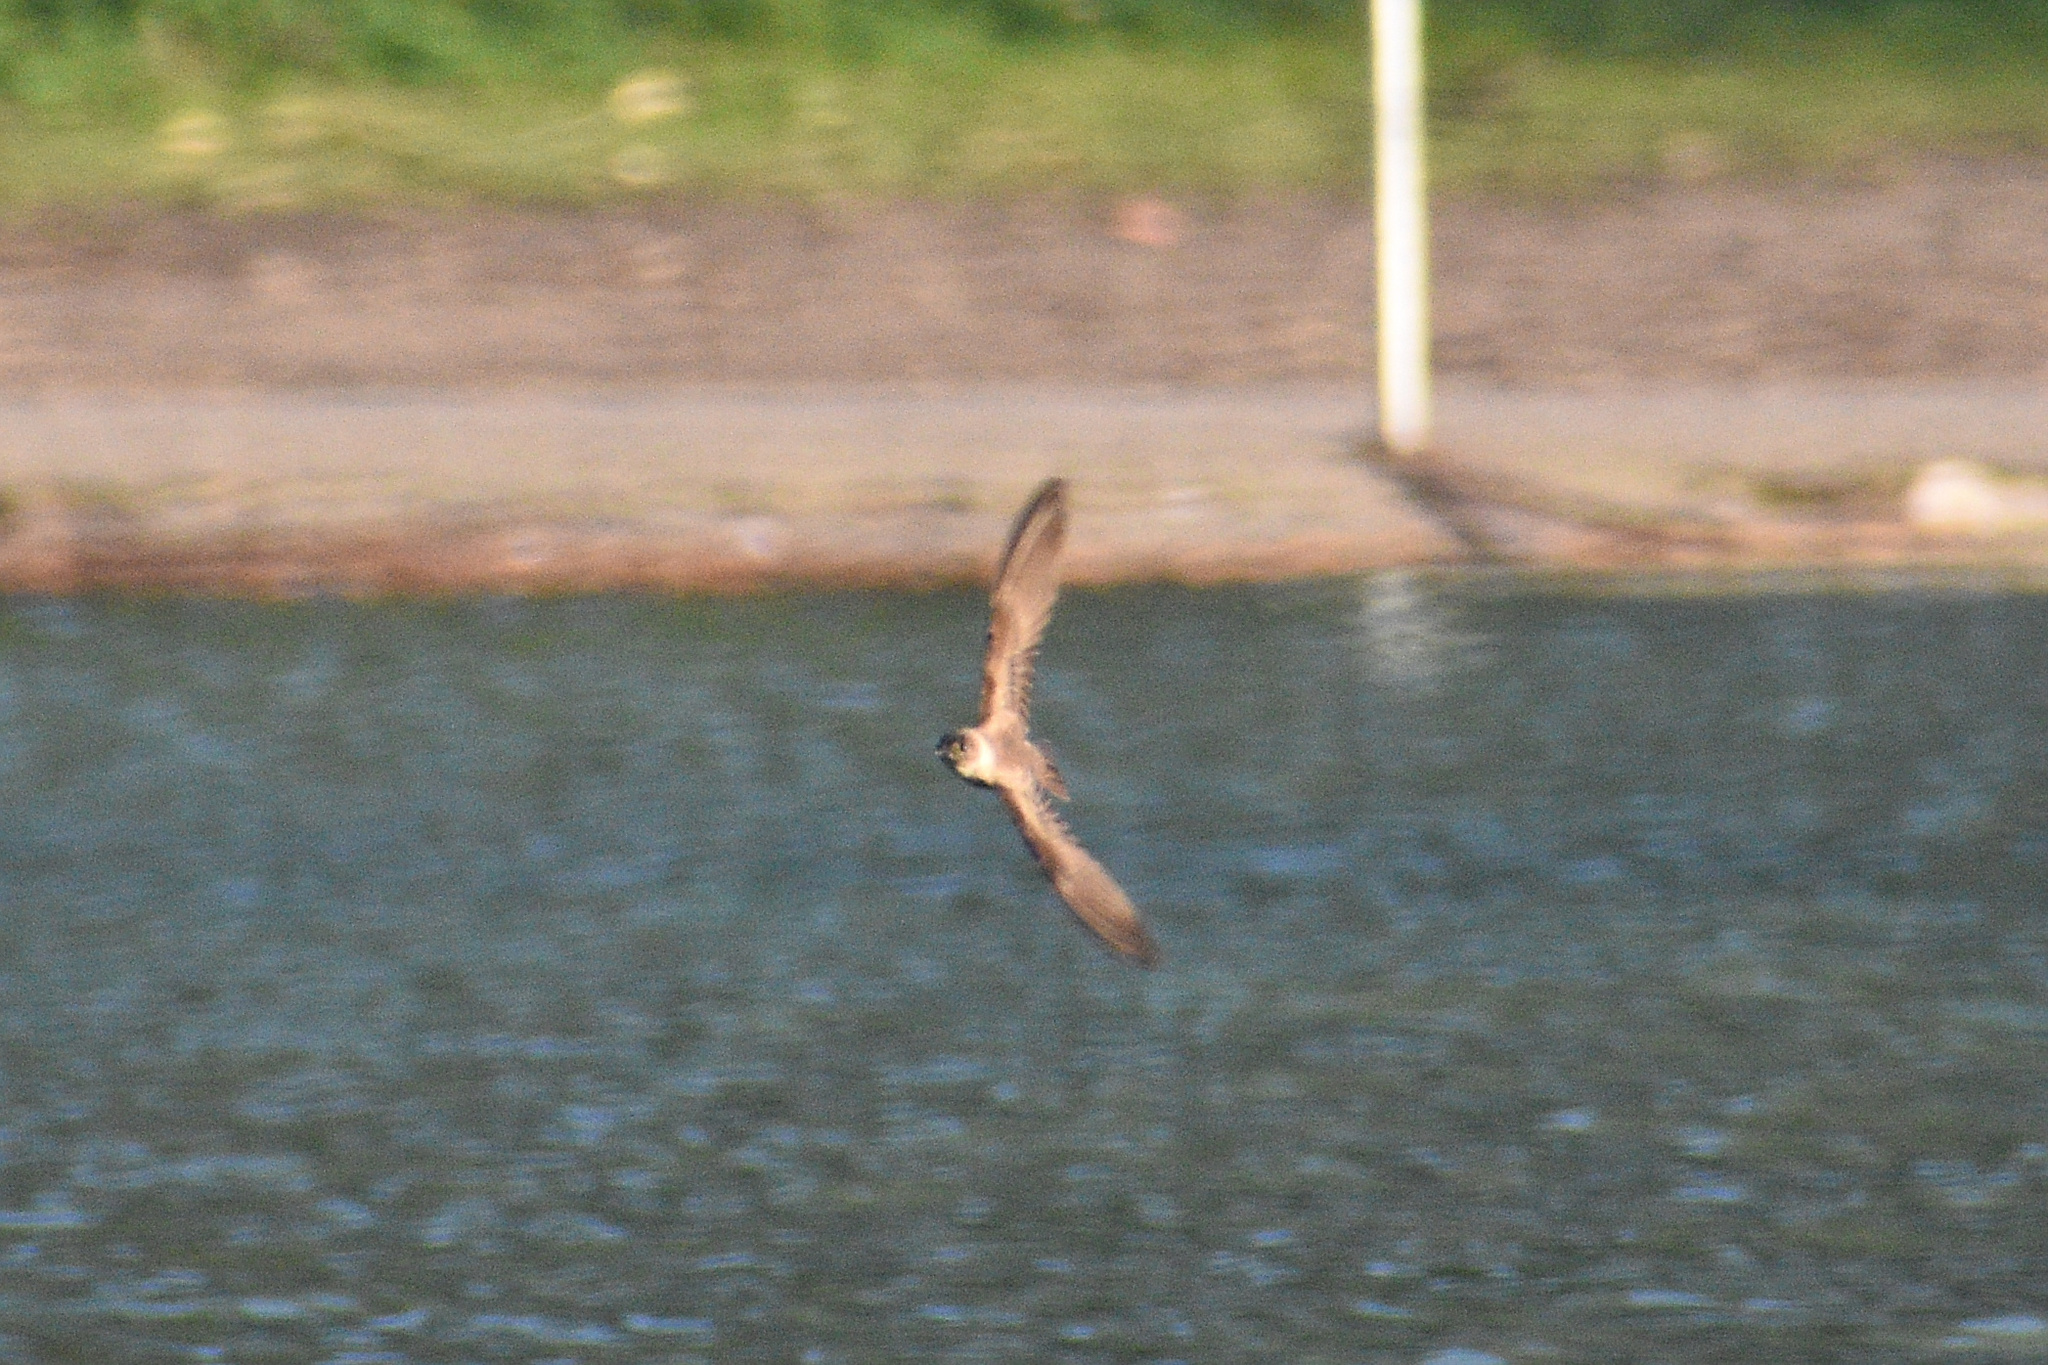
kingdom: Animalia
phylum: Chordata
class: Aves
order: Passeriformes
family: Hirundinidae
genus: Stelgidopteryx
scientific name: Stelgidopteryx serripennis
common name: Northern rough-winged swallow
